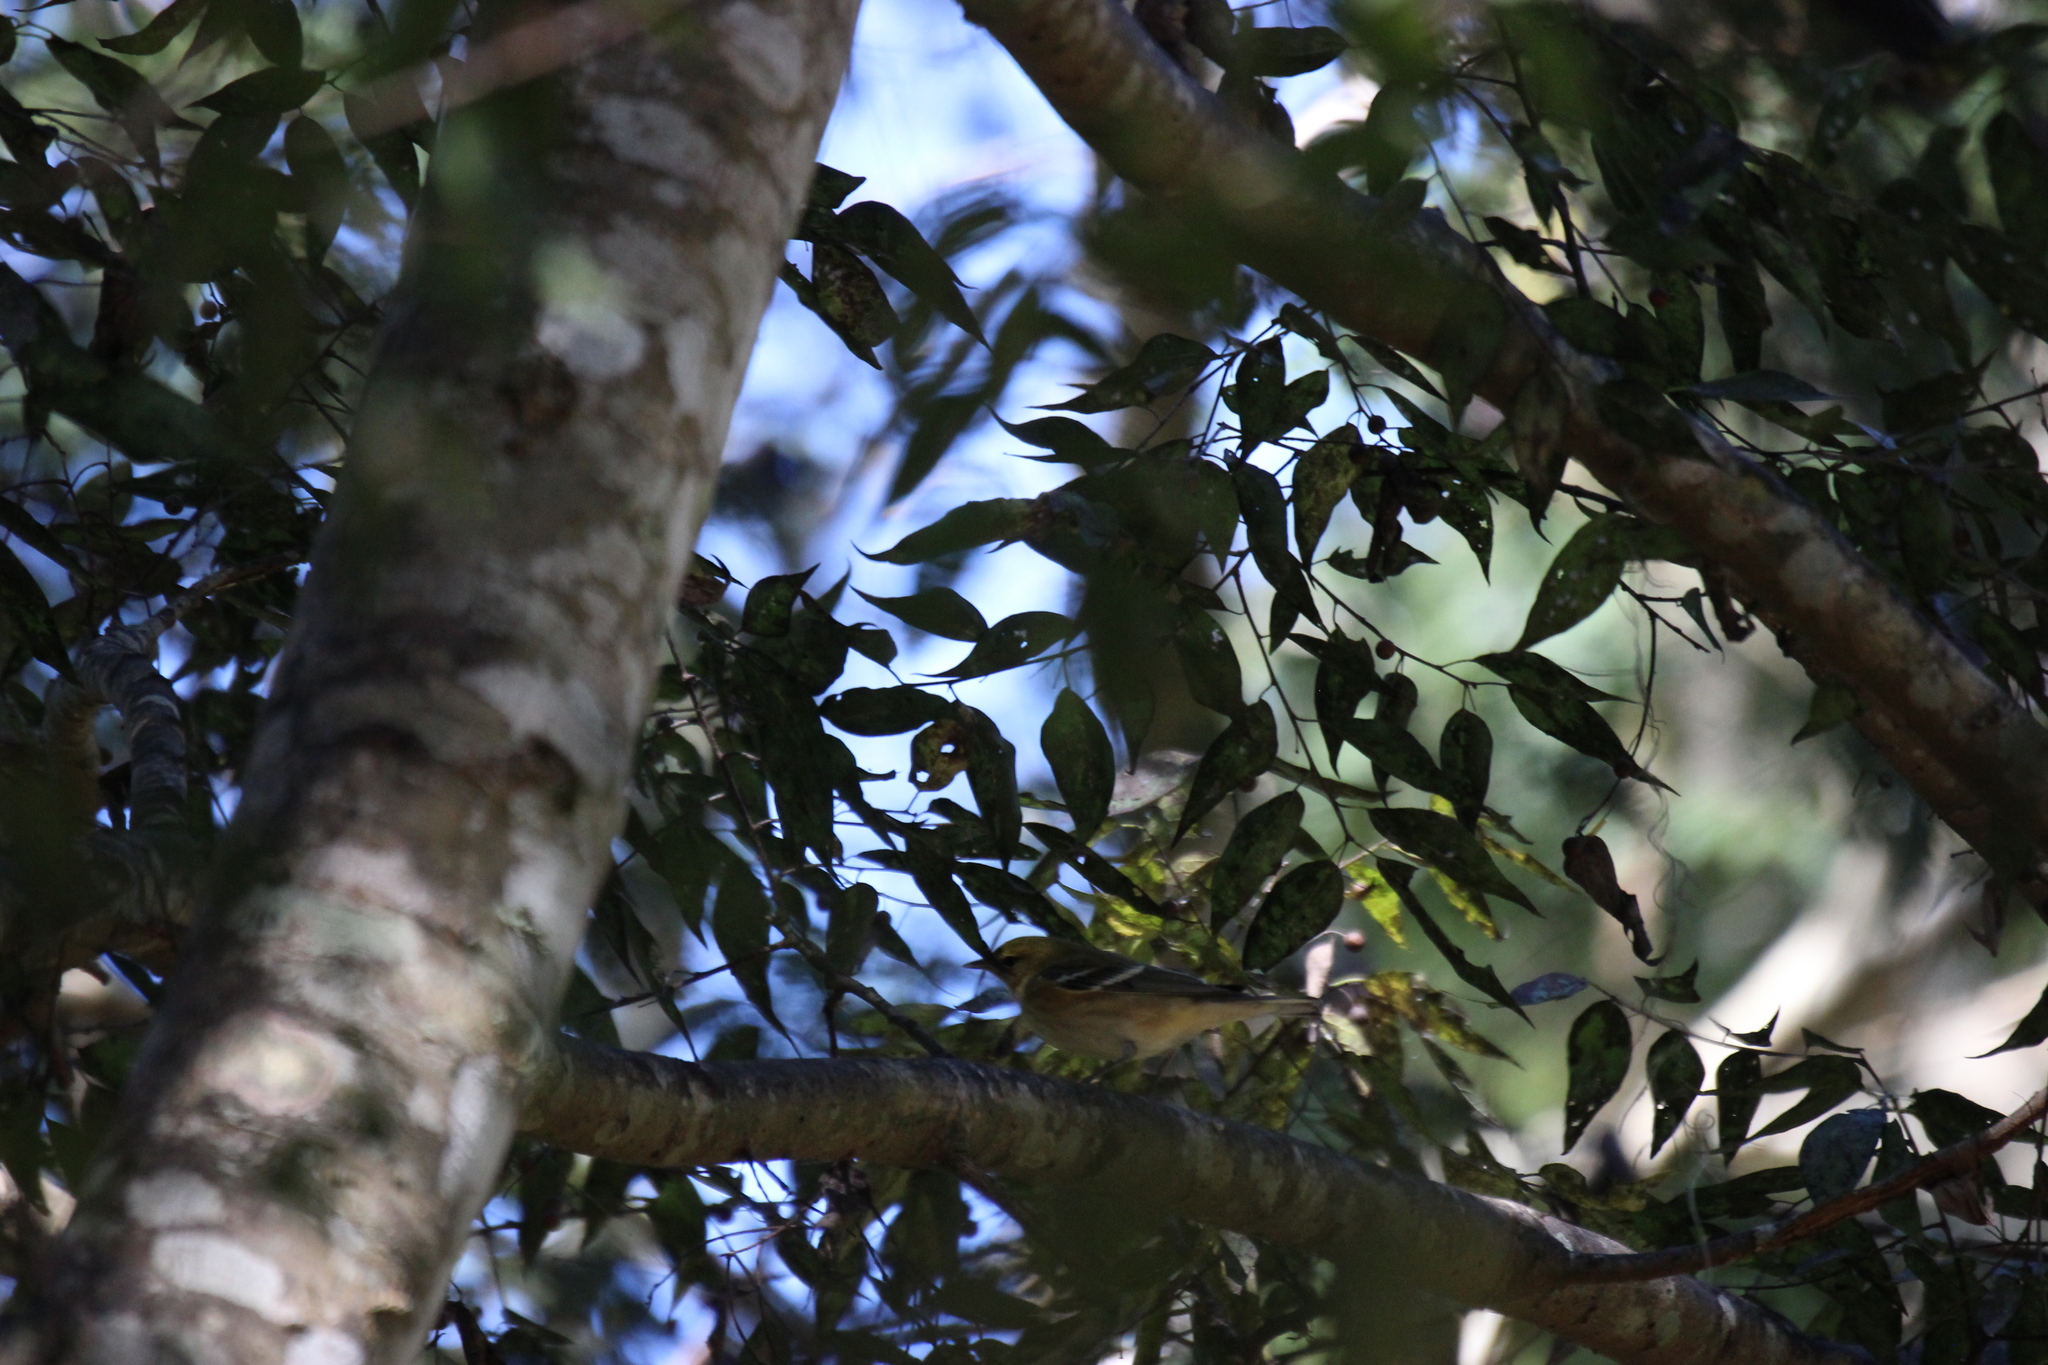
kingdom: Animalia
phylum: Chordata
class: Aves
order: Passeriformes
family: Parulidae
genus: Setophaga
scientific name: Setophaga castanea
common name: Bay-breasted warbler
